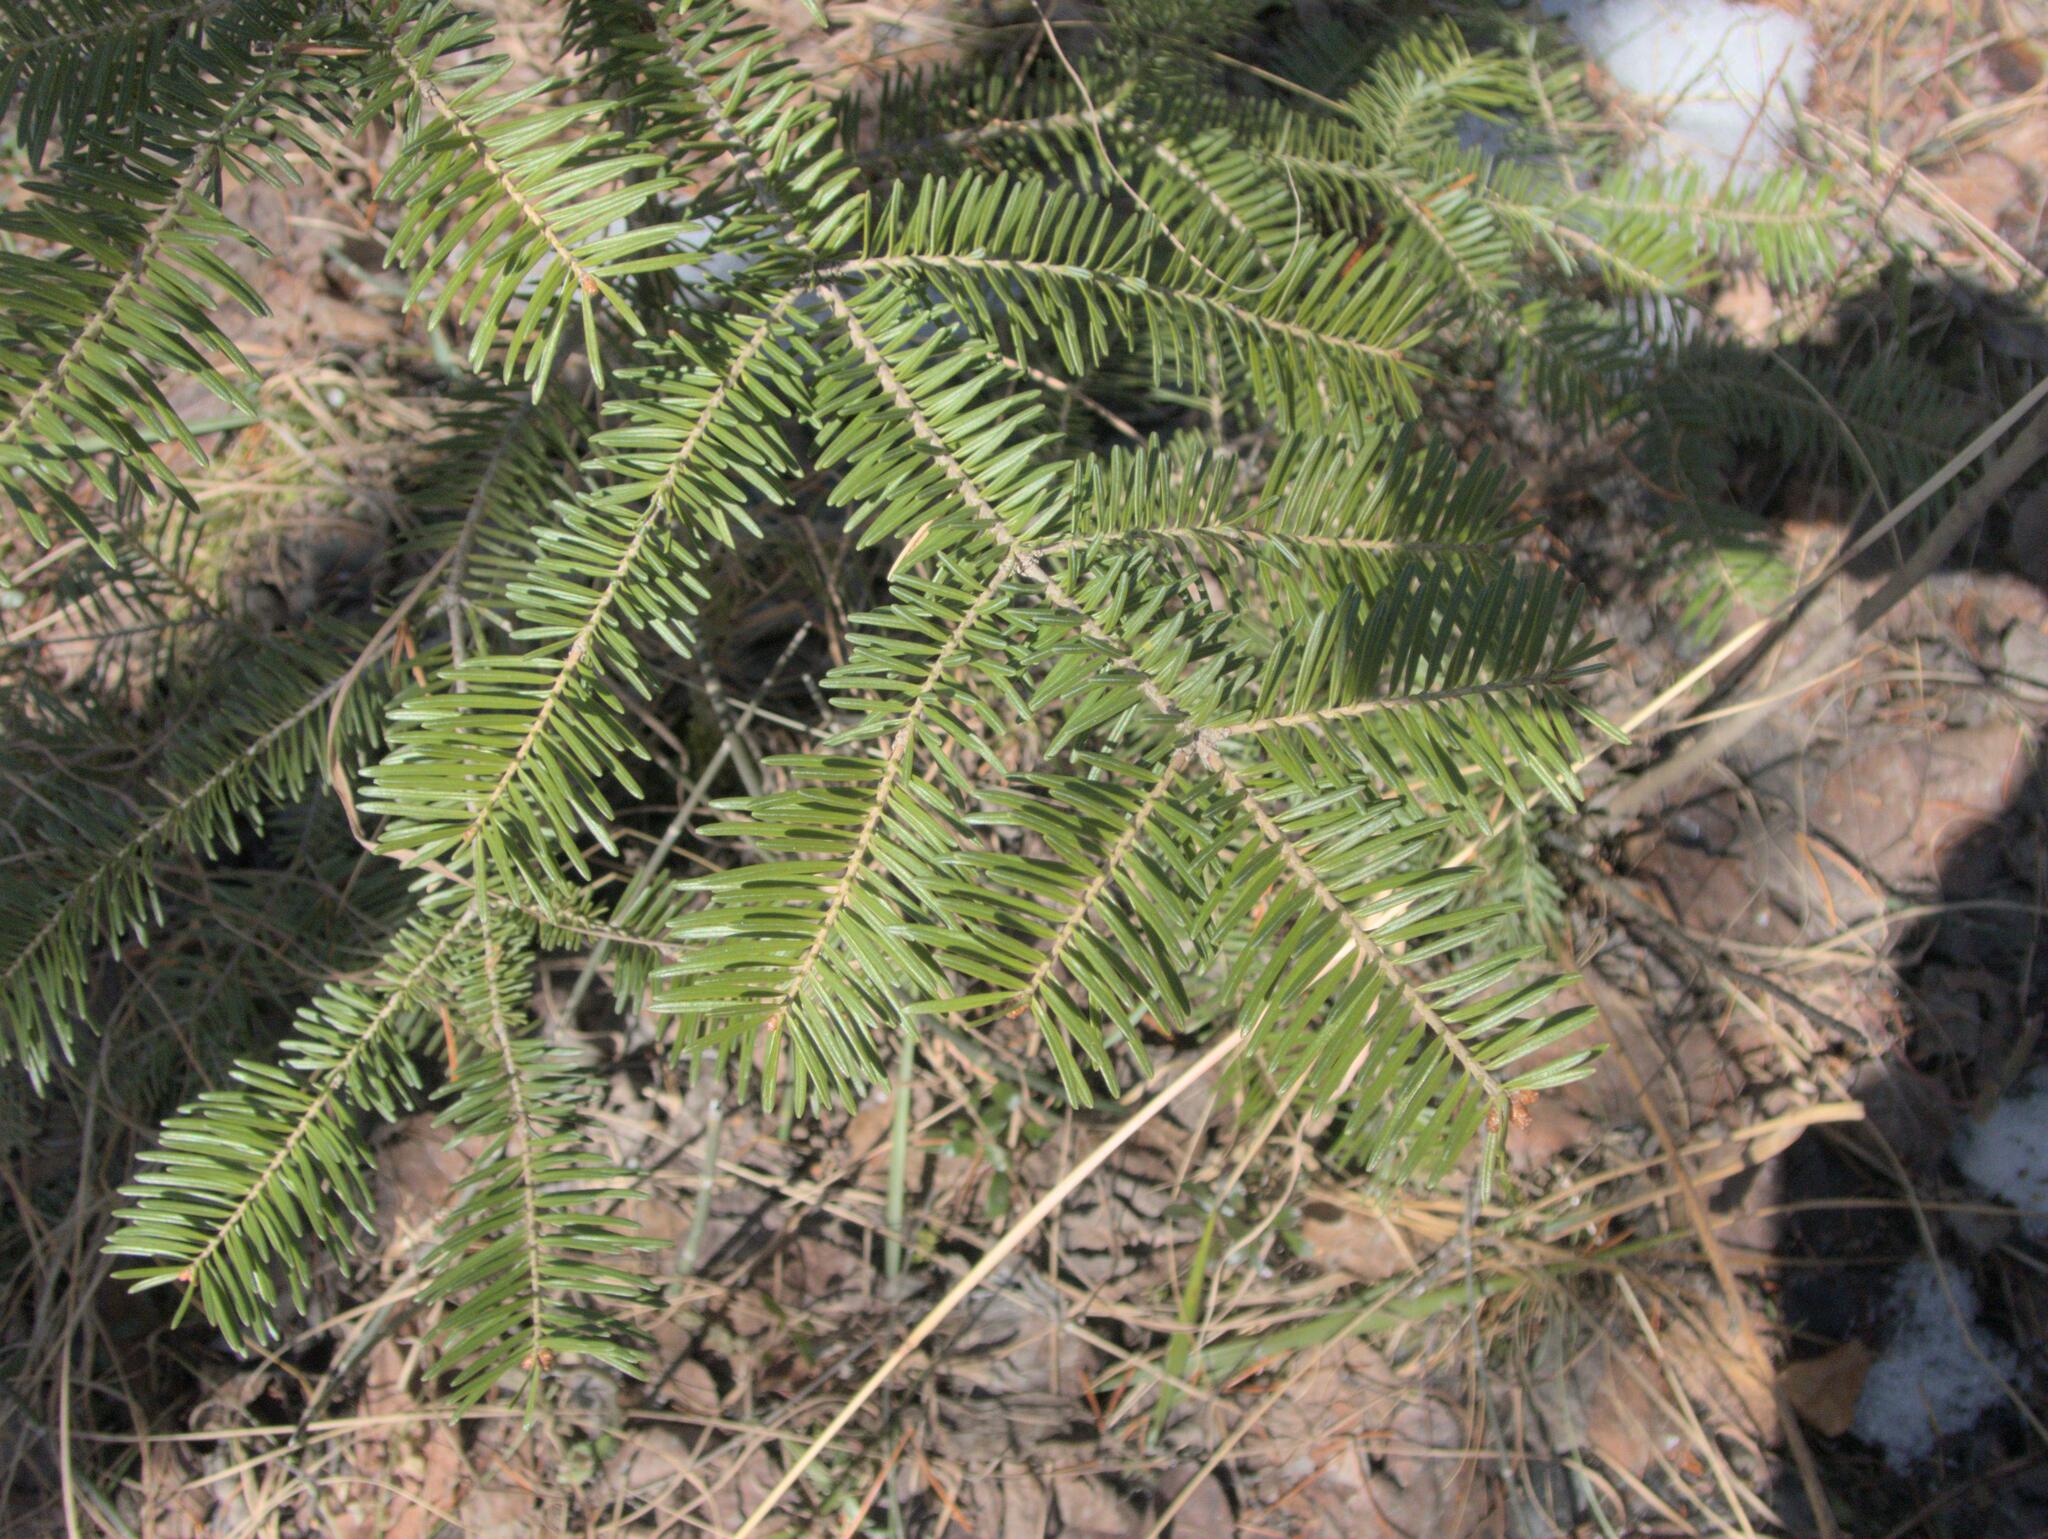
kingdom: Plantae
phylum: Tracheophyta
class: Pinopsida
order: Pinales
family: Pinaceae
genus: Abies
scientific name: Abies balsamea
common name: Balsam fir
